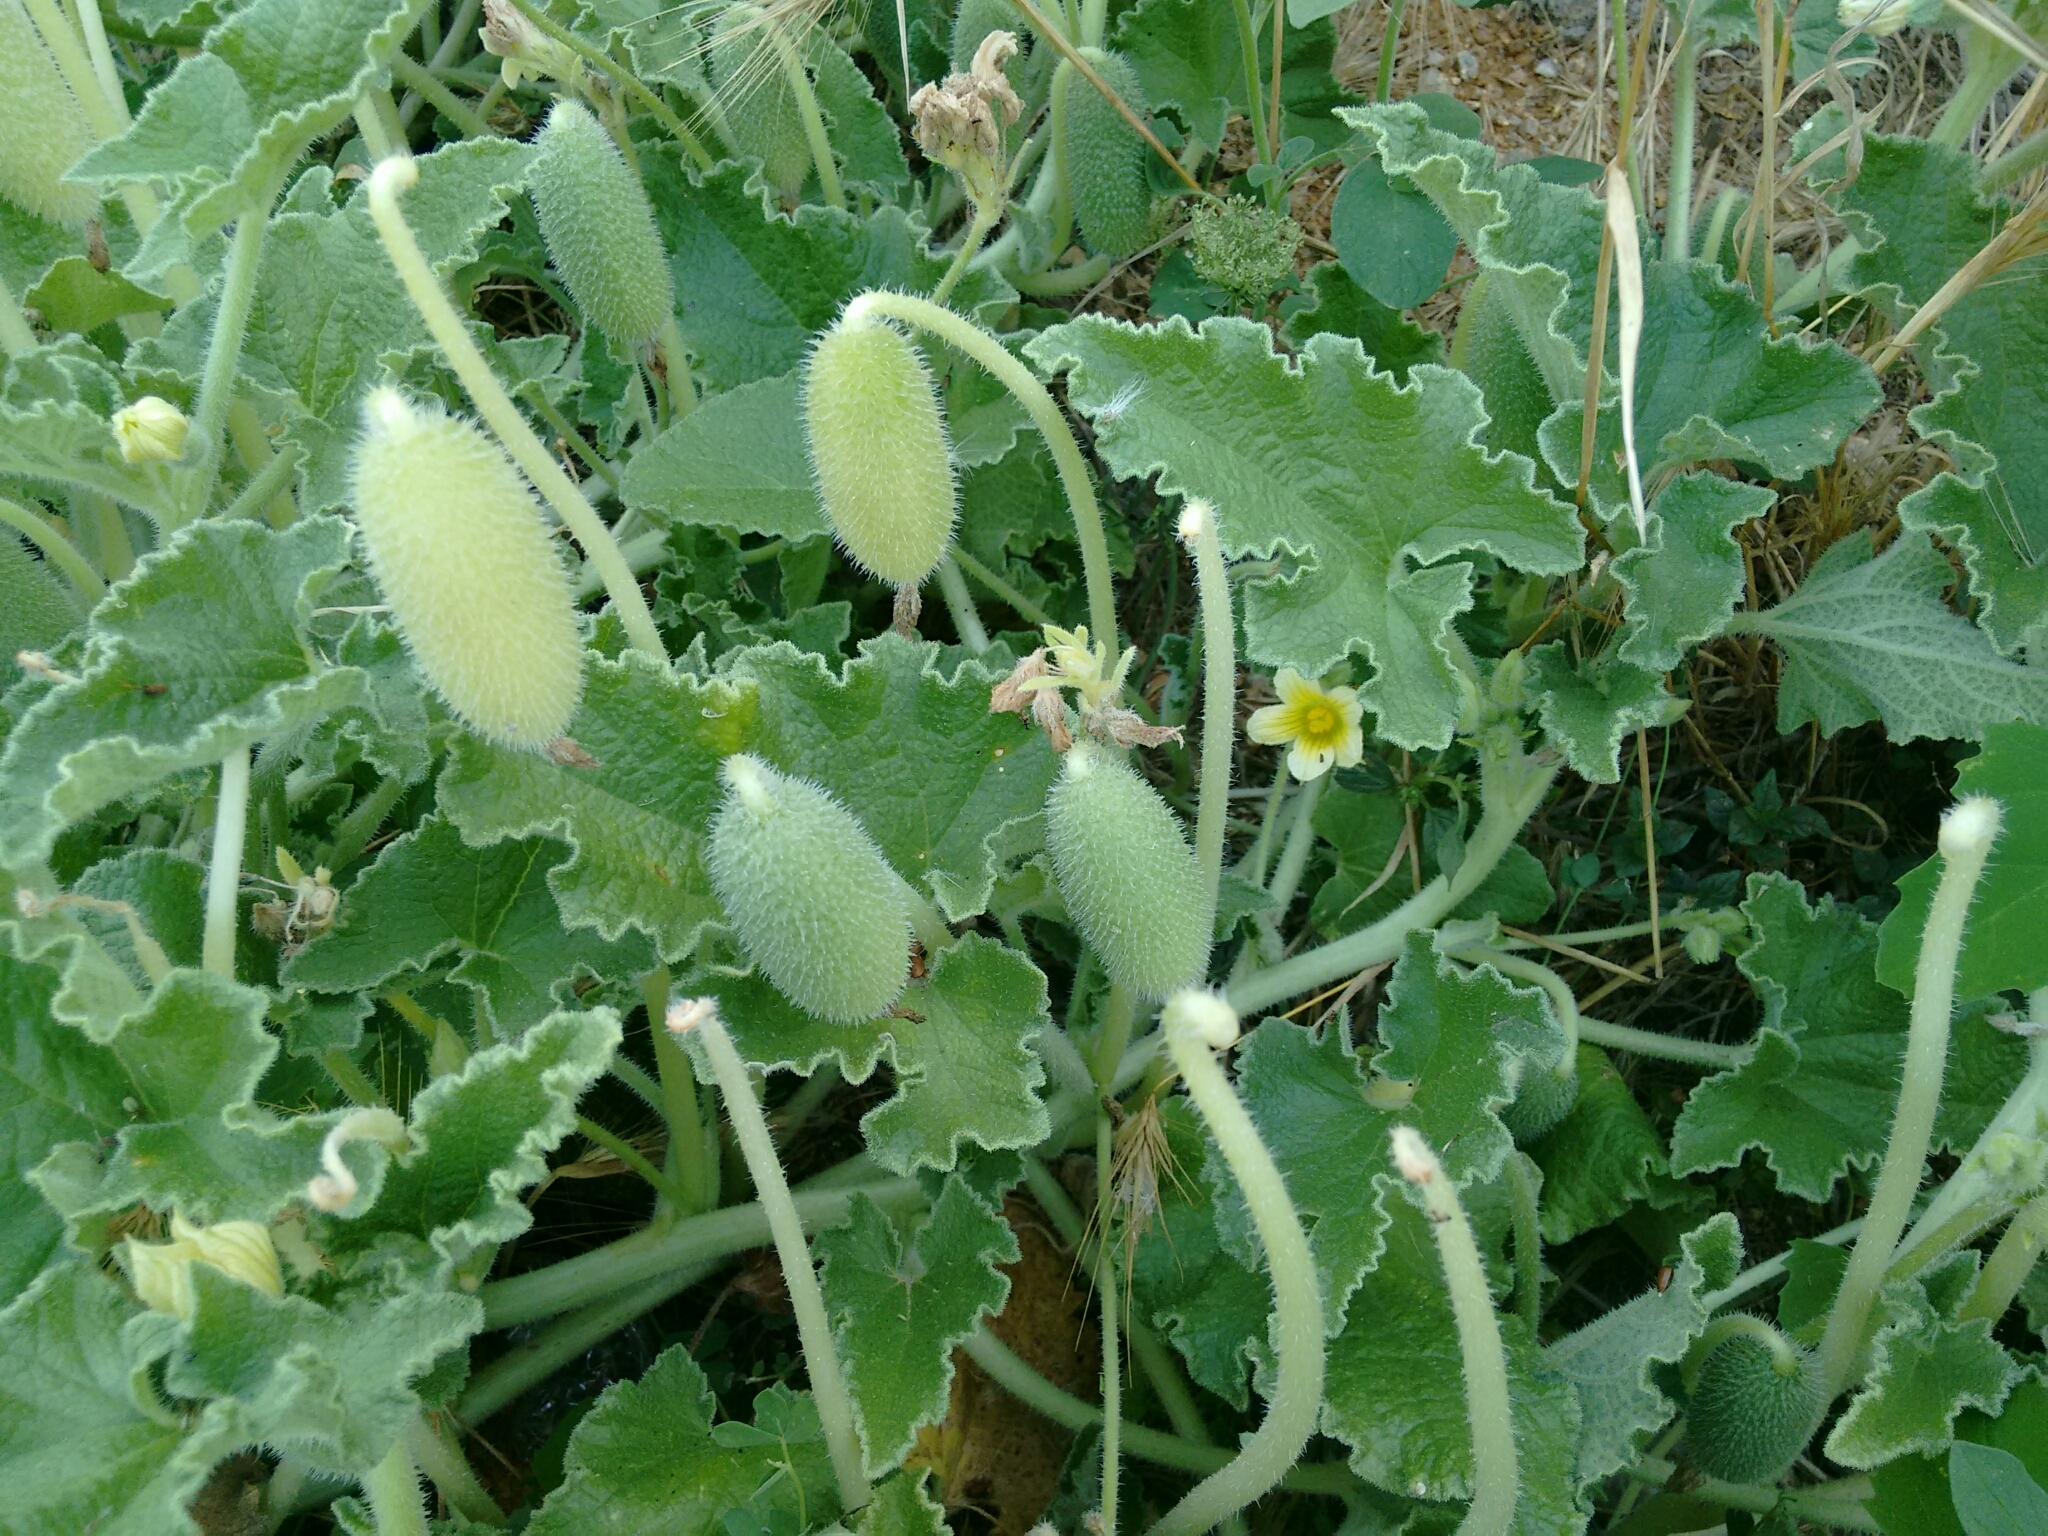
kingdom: Plantae
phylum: Tracheophyta
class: Magnoliopsida
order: Cucurbitales
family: Cucurbitaceae
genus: Ecballium
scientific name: Ecballium elaterium
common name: Squirting cucumber
